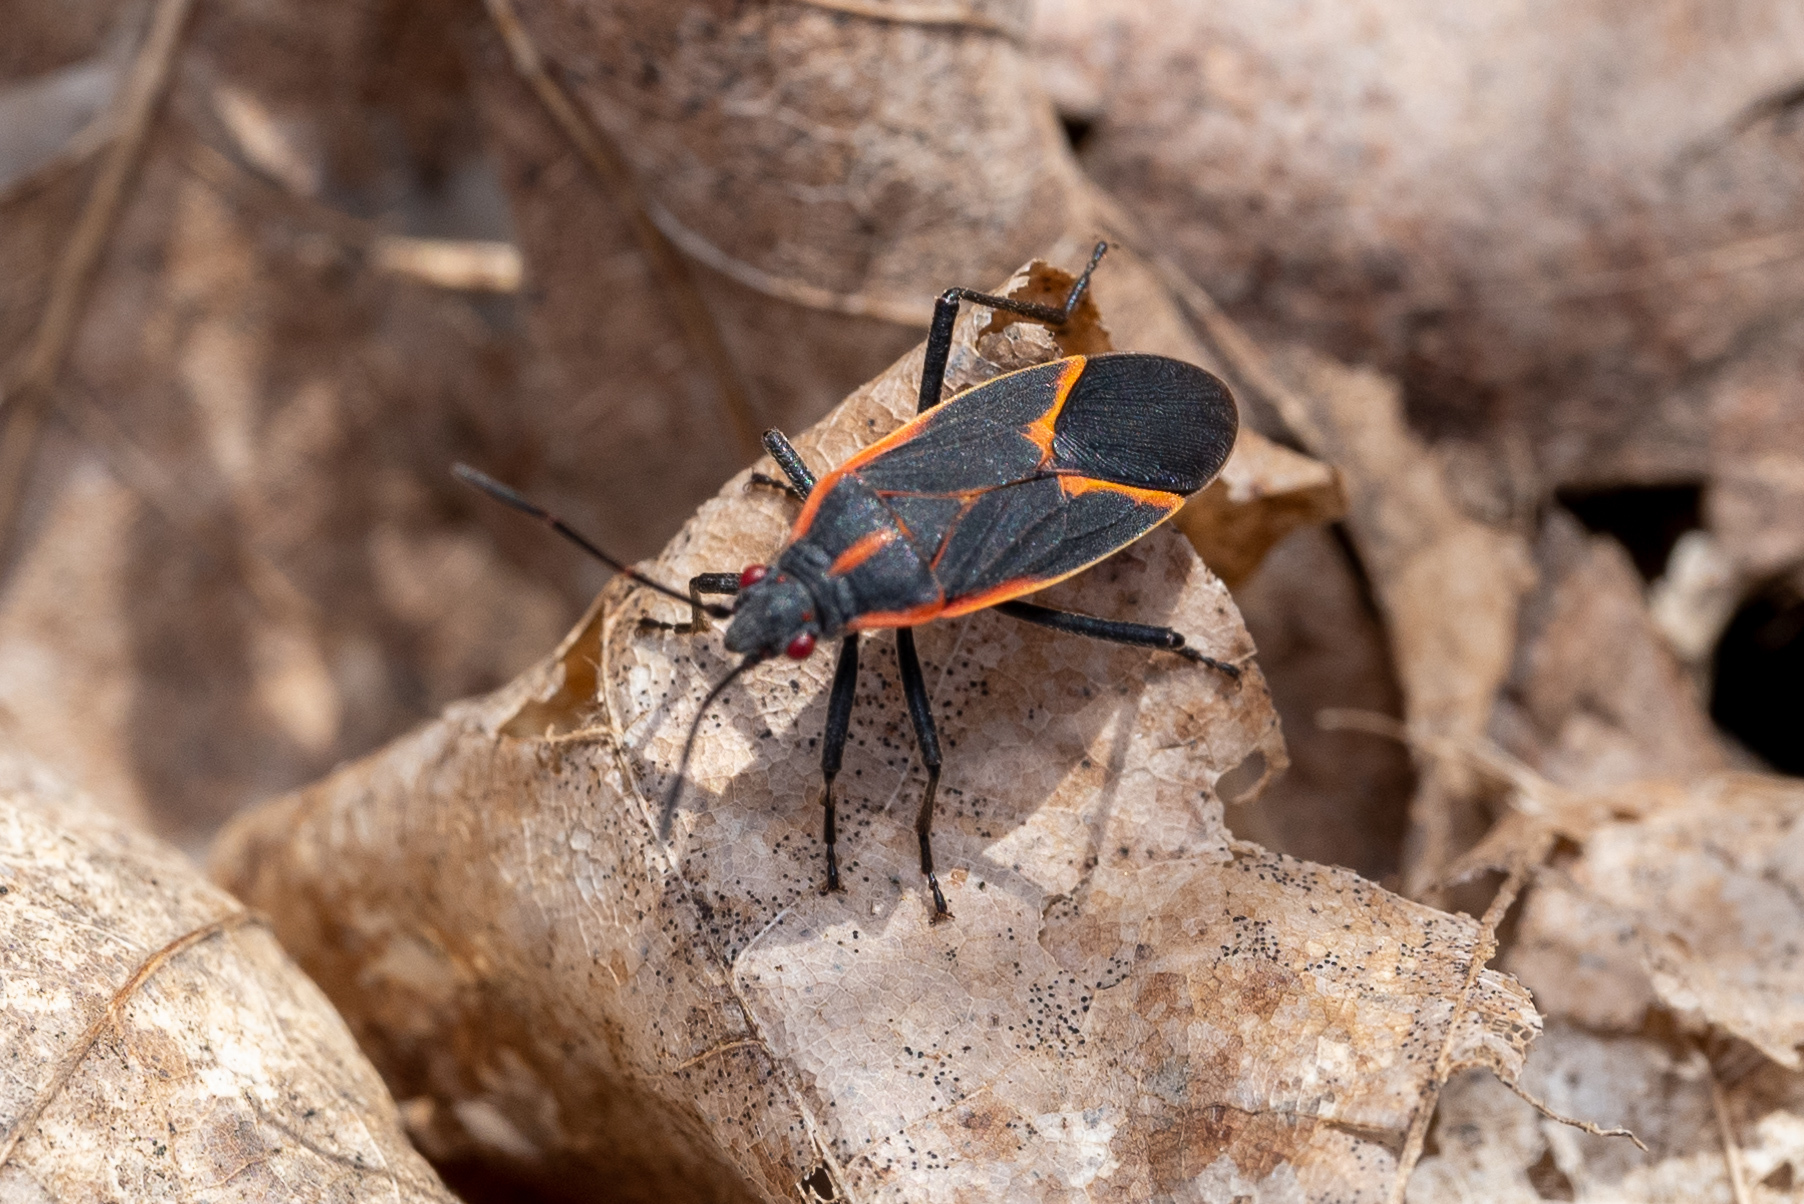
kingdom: Animalia
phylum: Arthropoda
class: Insecta
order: Hemiptera
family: Rhopalidae
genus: Boisea
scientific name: Boisea trivittata
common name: Boxelder bug
